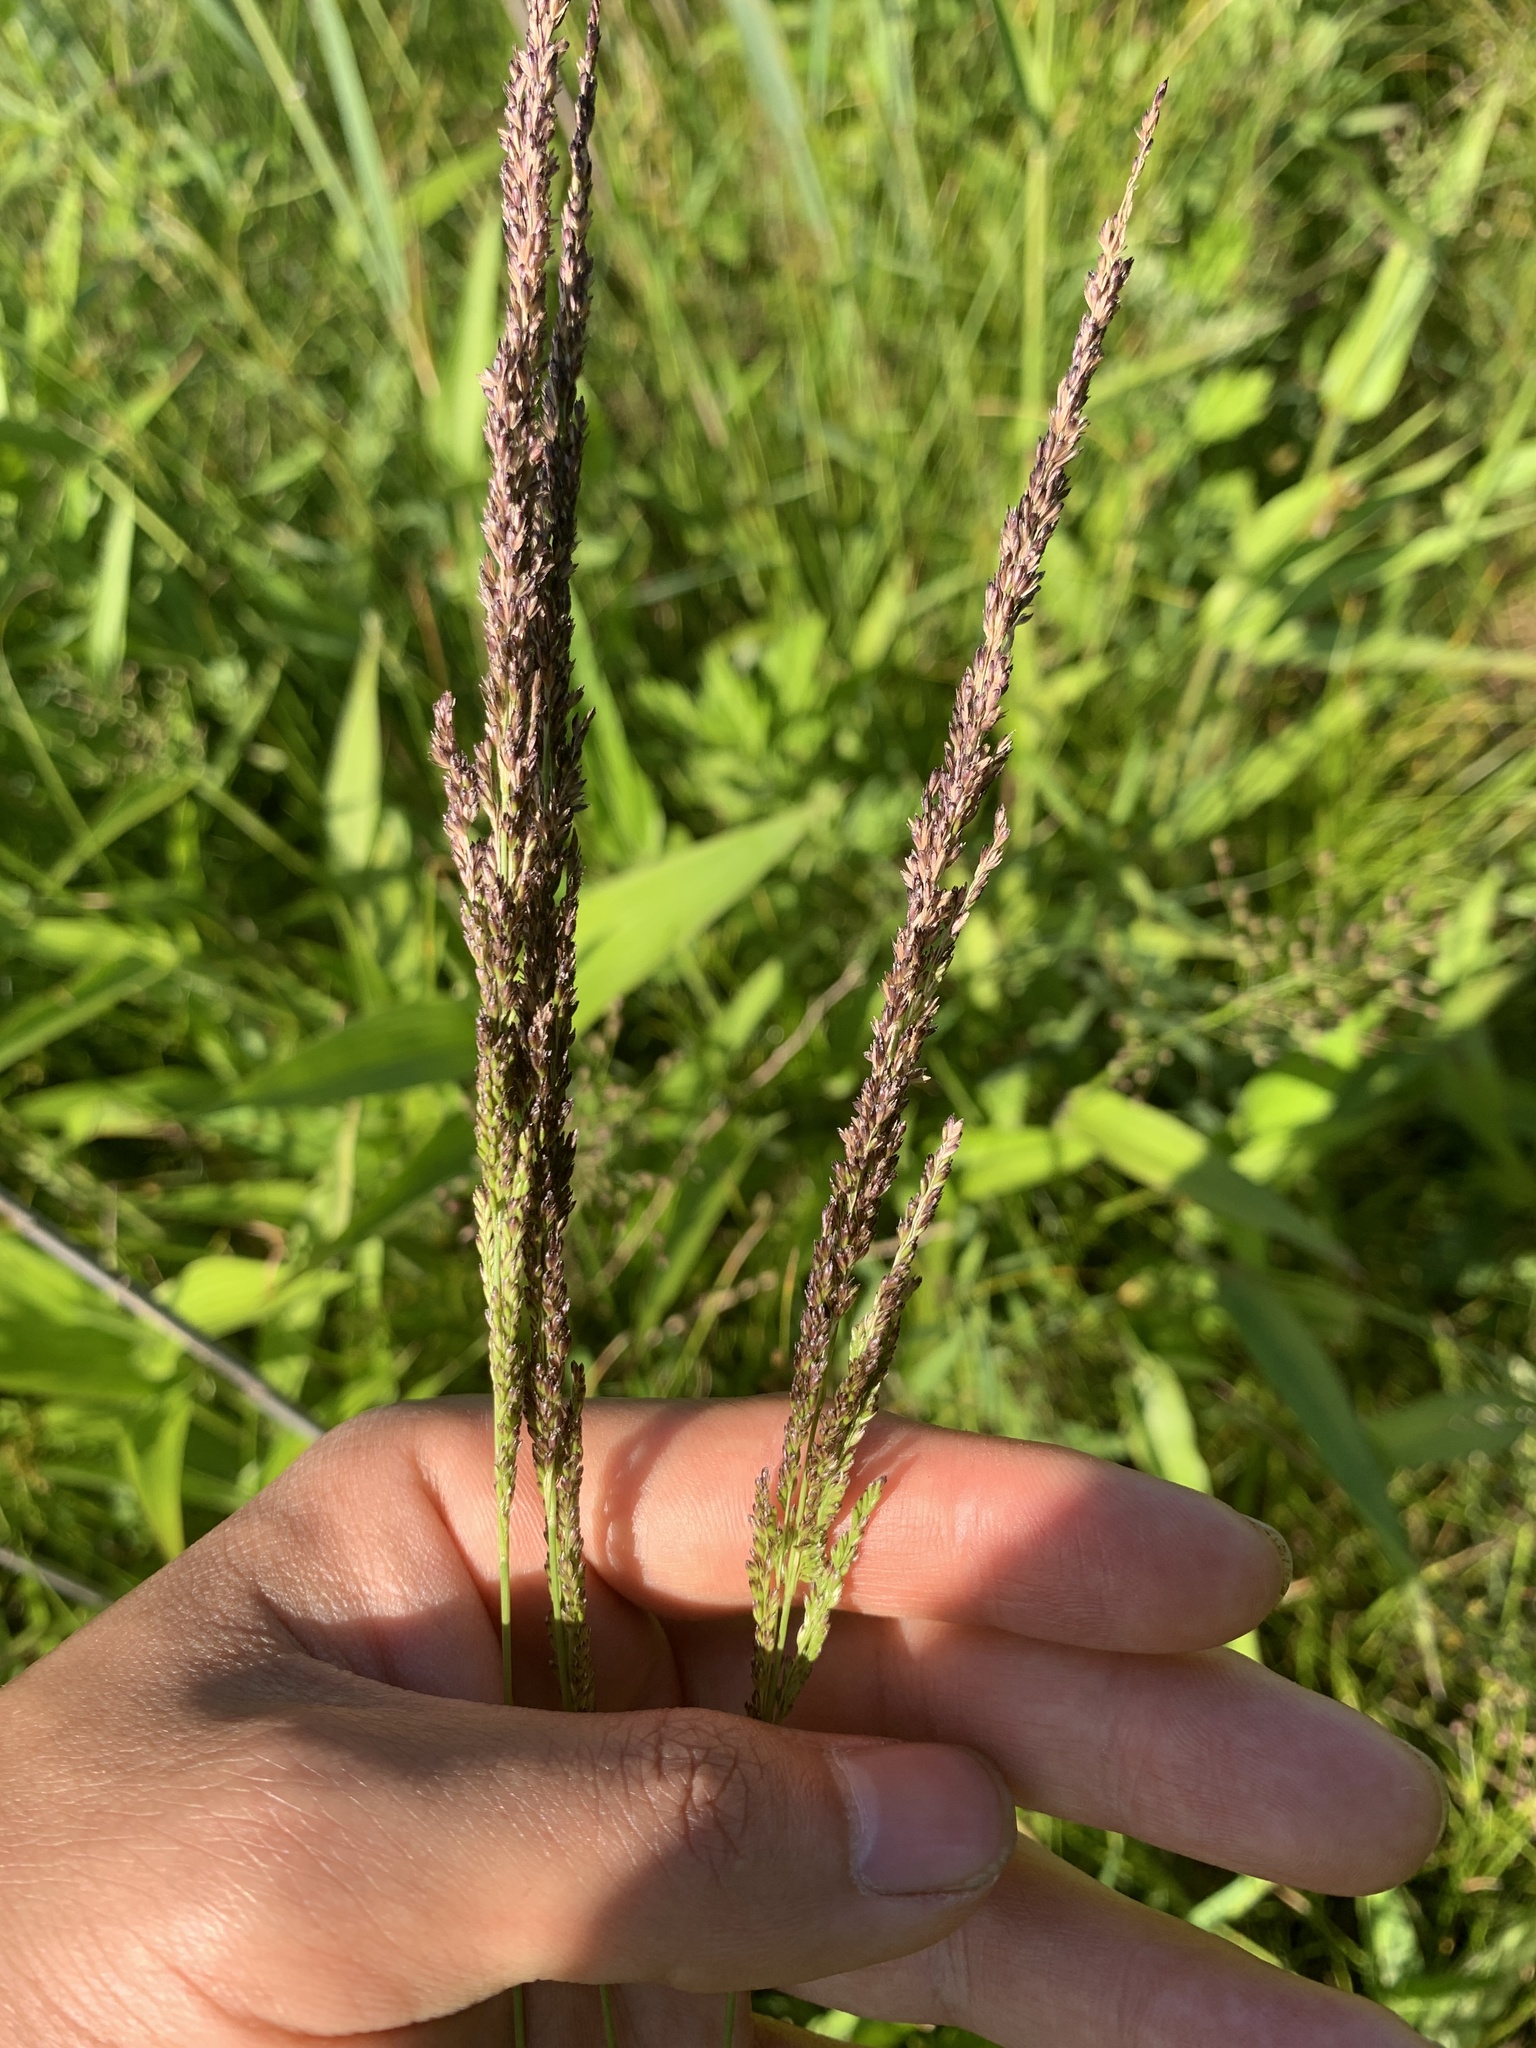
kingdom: Plantae
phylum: Tracheophyta
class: Liliopsida
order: Poales
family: Poaceae
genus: Sphenopholis
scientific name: Sphenopholis obtusata
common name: Prairie grass
